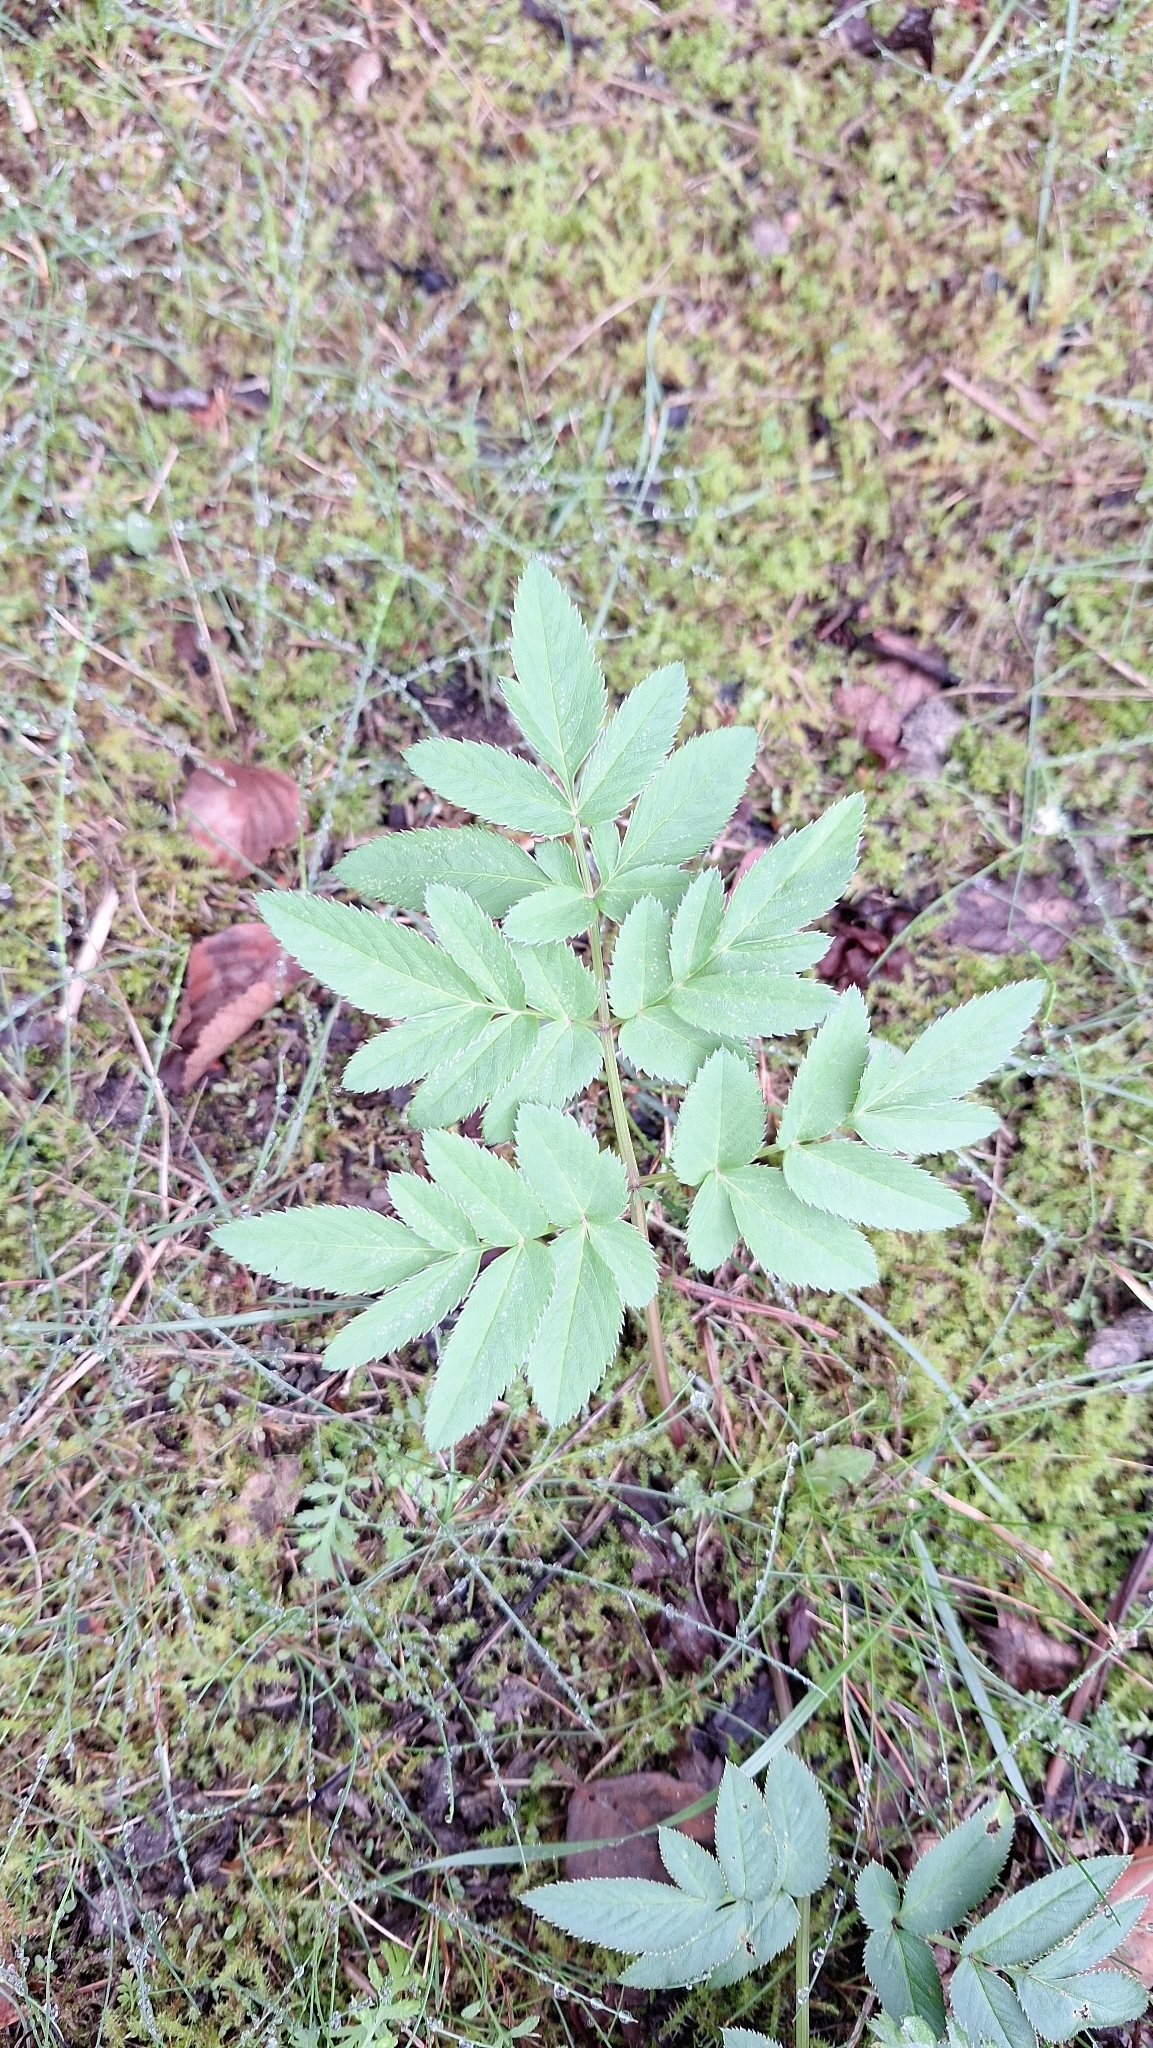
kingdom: Plantae
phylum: Tracheophyta
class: Magnoliopsida
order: Apiales
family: Apiaceae
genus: Angelica
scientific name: Angelica sylvestris
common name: Wild angelica
